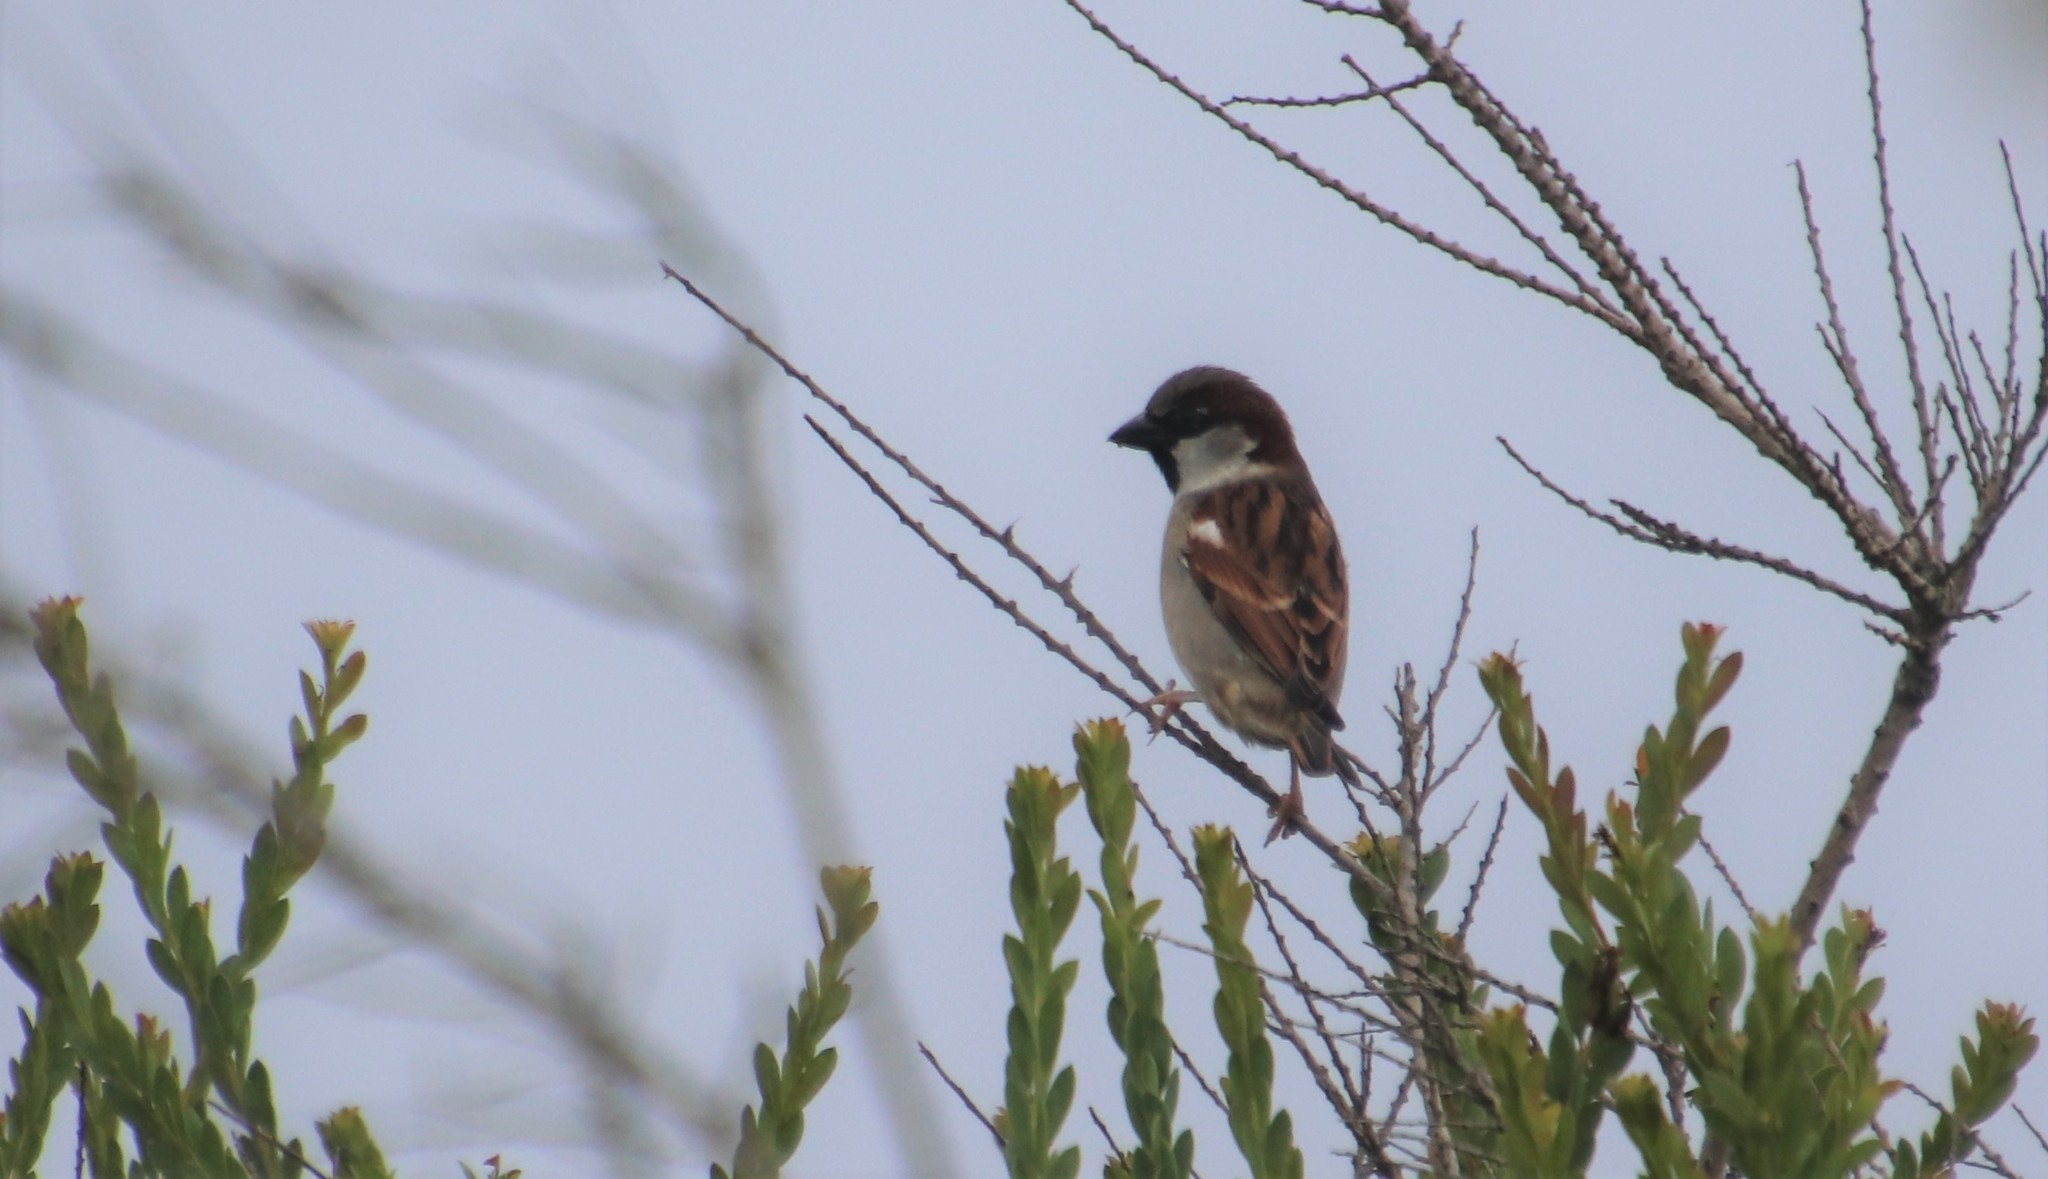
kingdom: Animalia
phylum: Chordata
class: Aves
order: Passeriformes
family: Passeridae
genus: Passer
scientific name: Passer domesticus
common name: House sparrow
